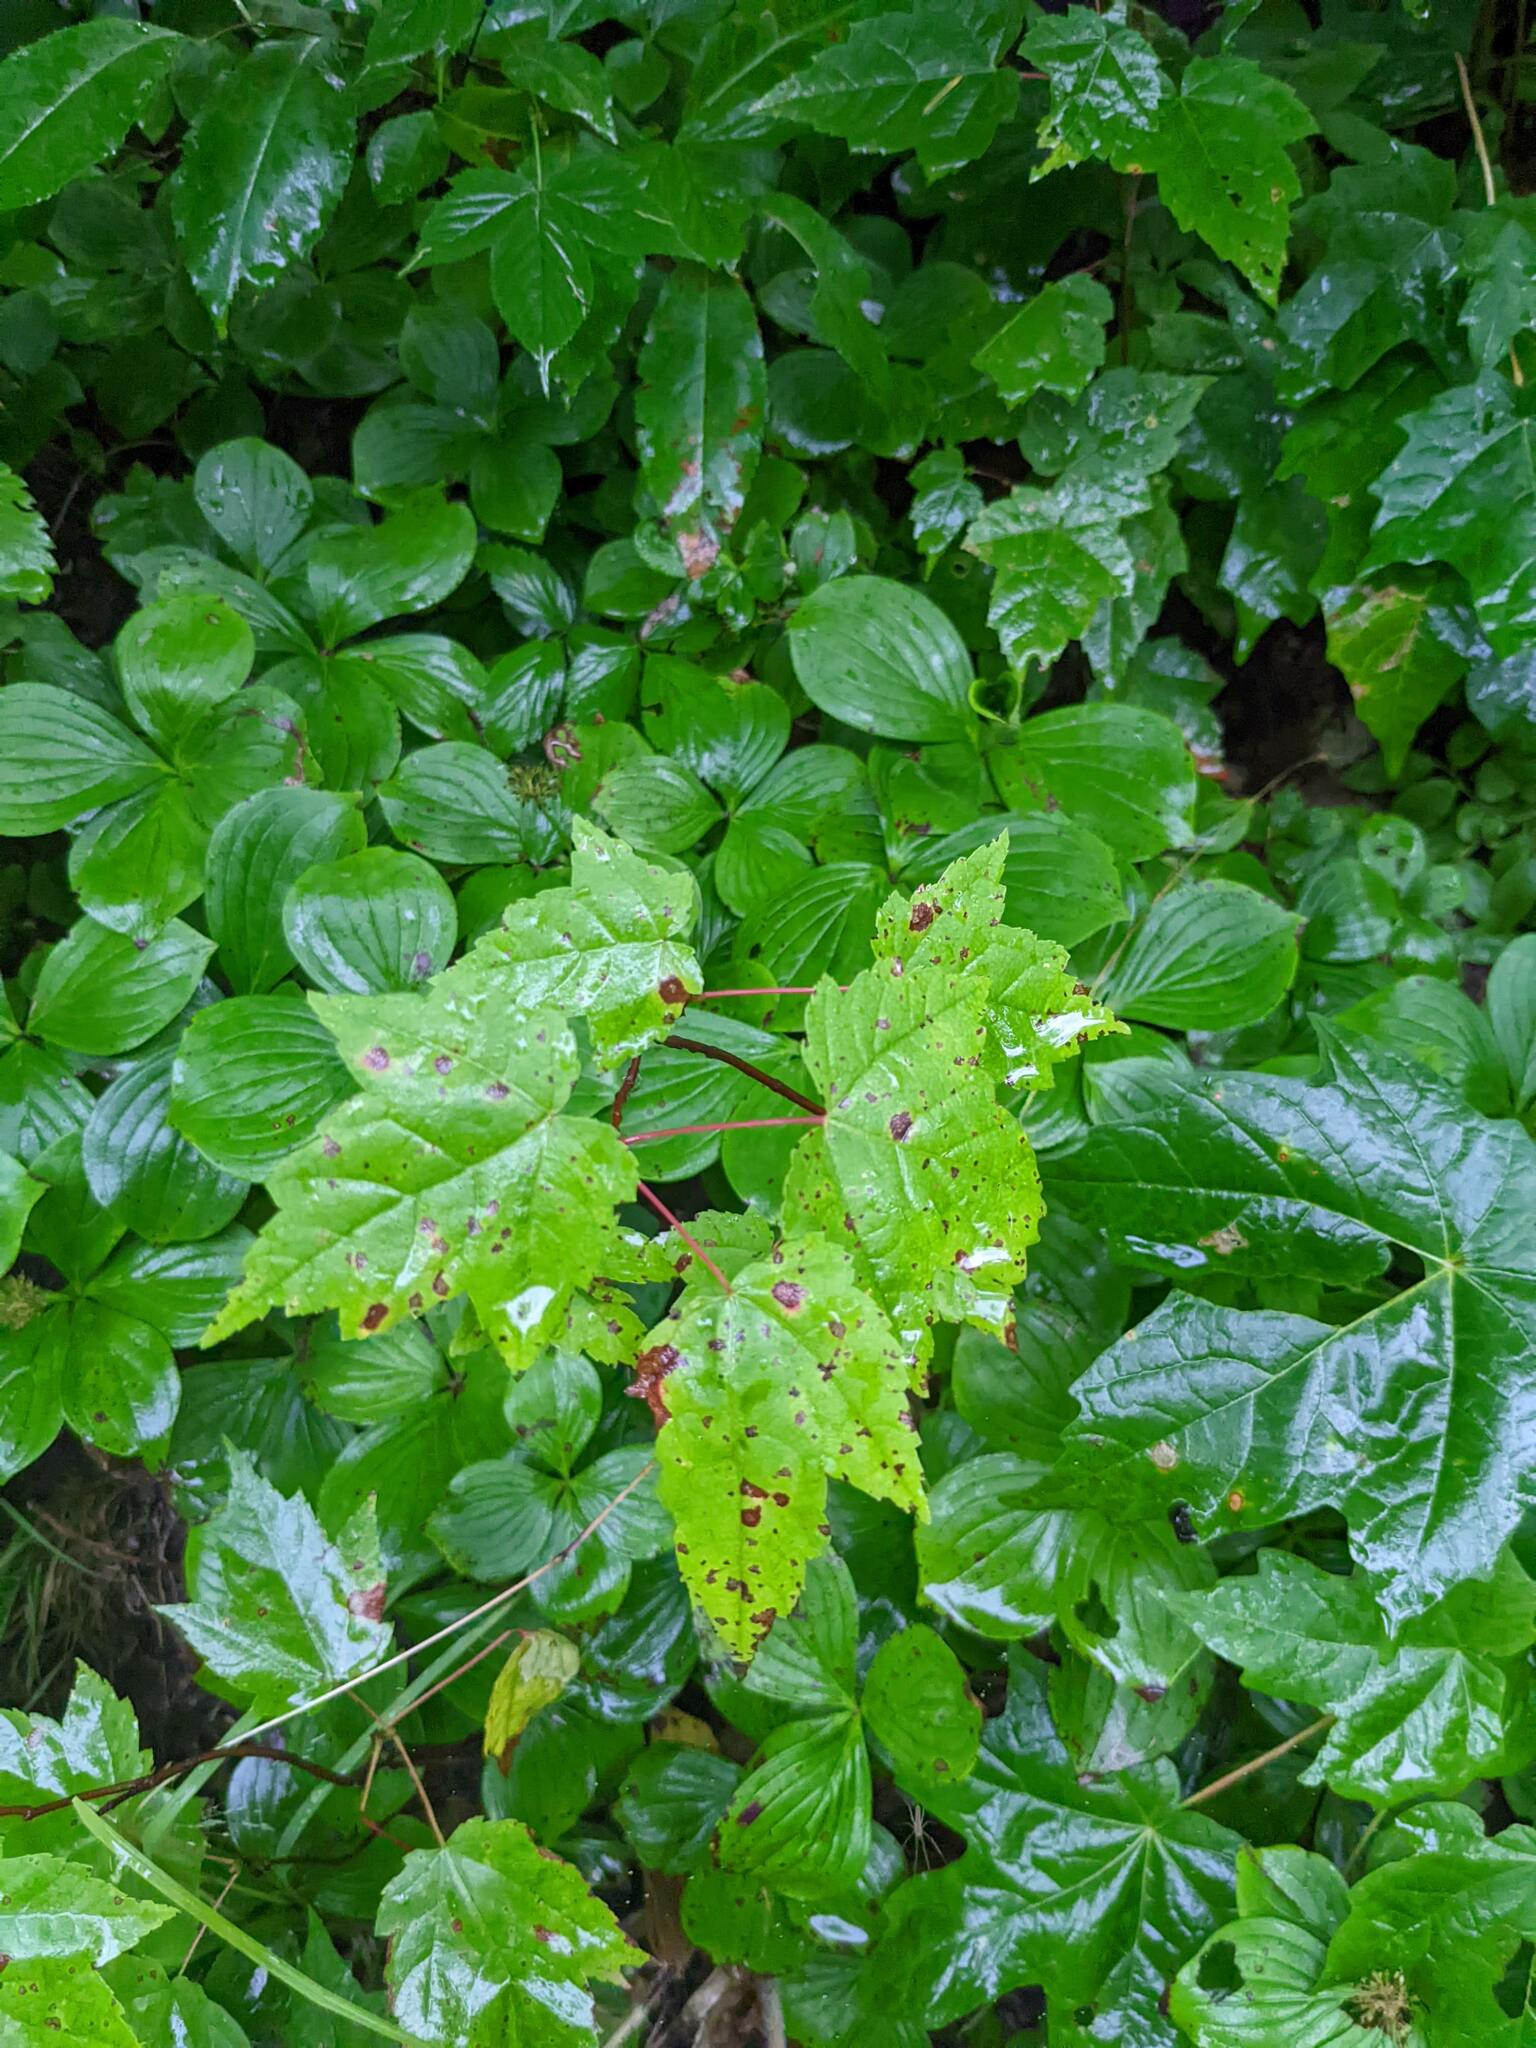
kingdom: Plantae
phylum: Tracheophyta
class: Magnoliopsida
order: Sapindales
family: Sapindaceae
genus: Acer
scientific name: Acer rubrum
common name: Red maple
